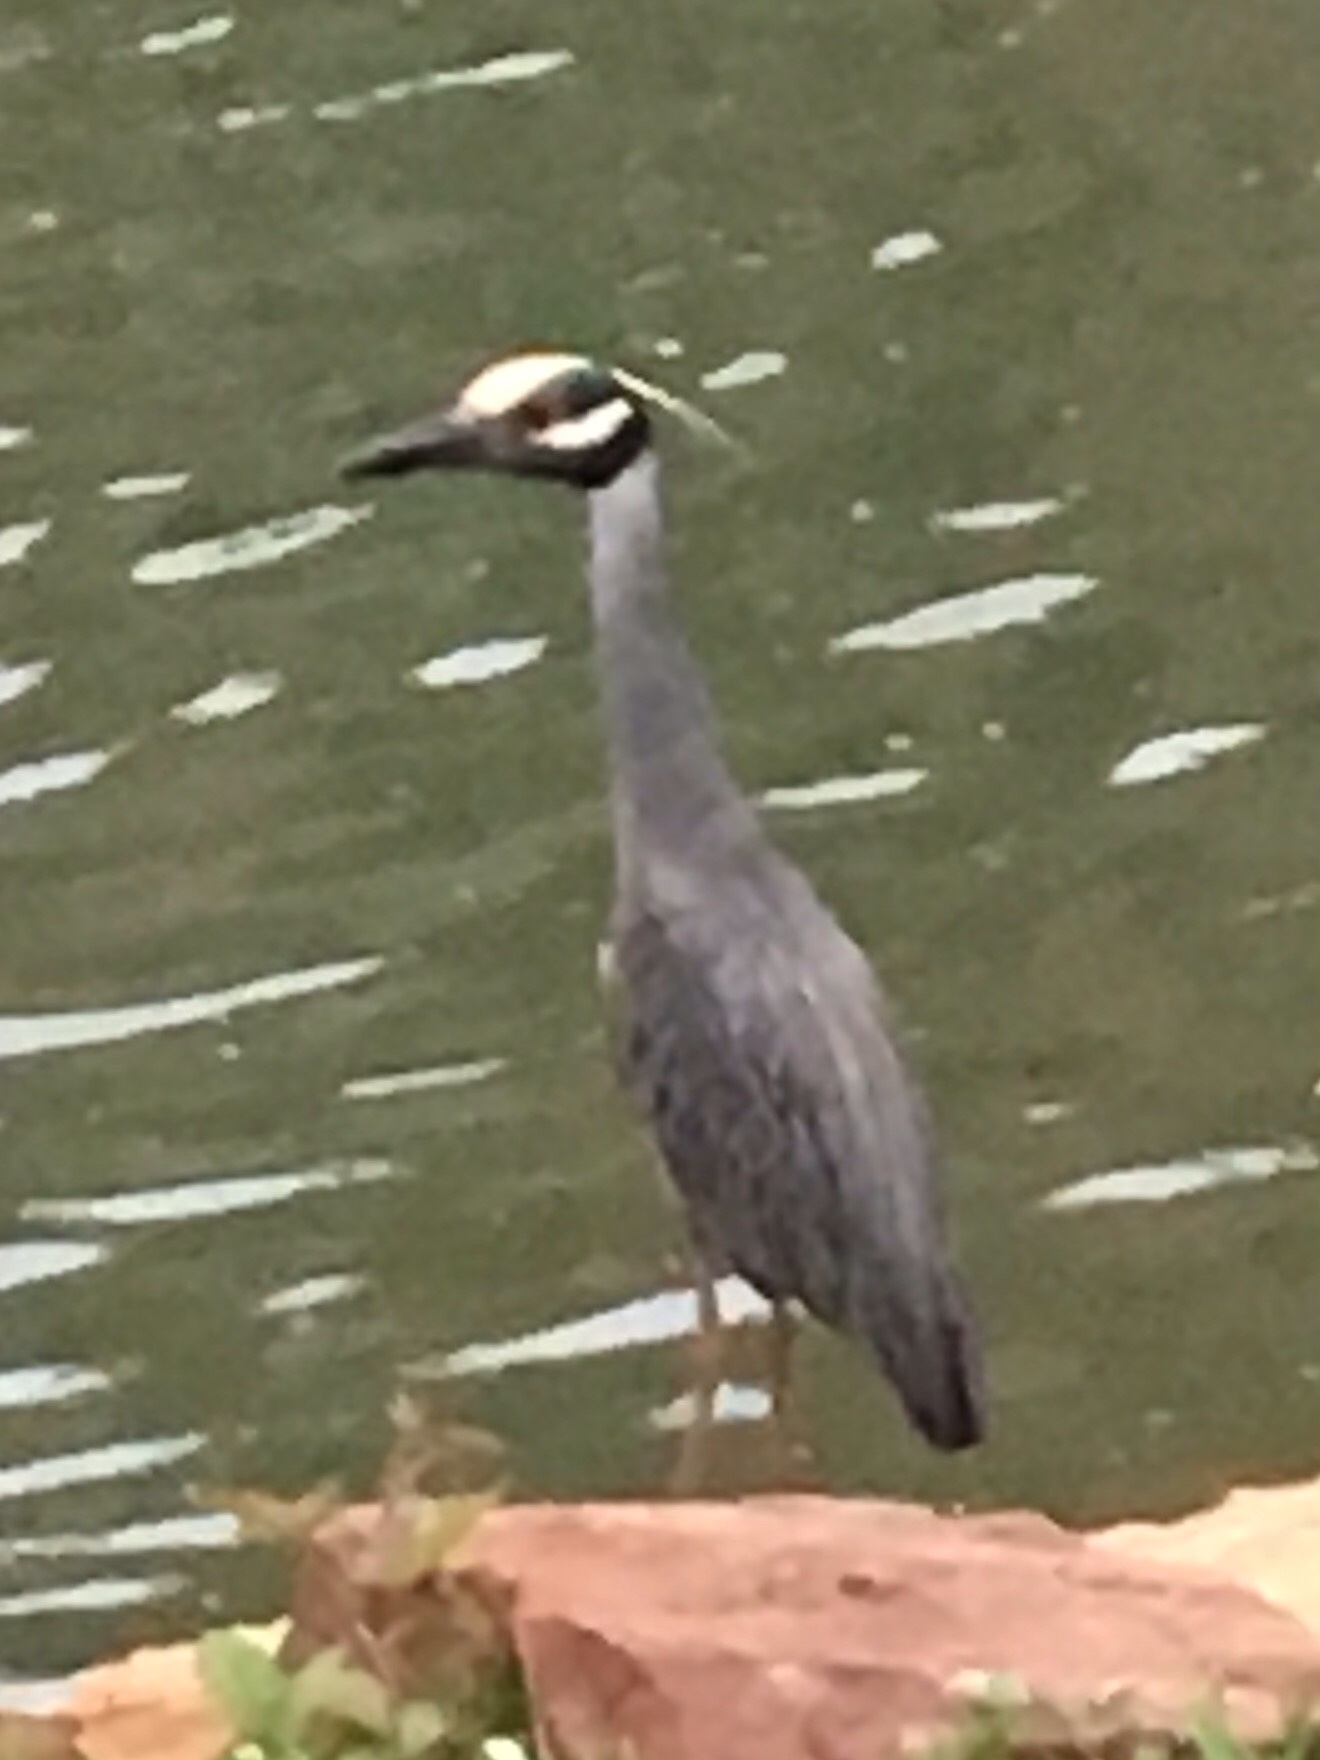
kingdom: Animalia
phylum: Chordata
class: Aves
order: Pelecaniformes
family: Ardeidae
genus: Nyctanassa
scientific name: Nyctanassa violacea
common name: Yellow-crowned night heron
